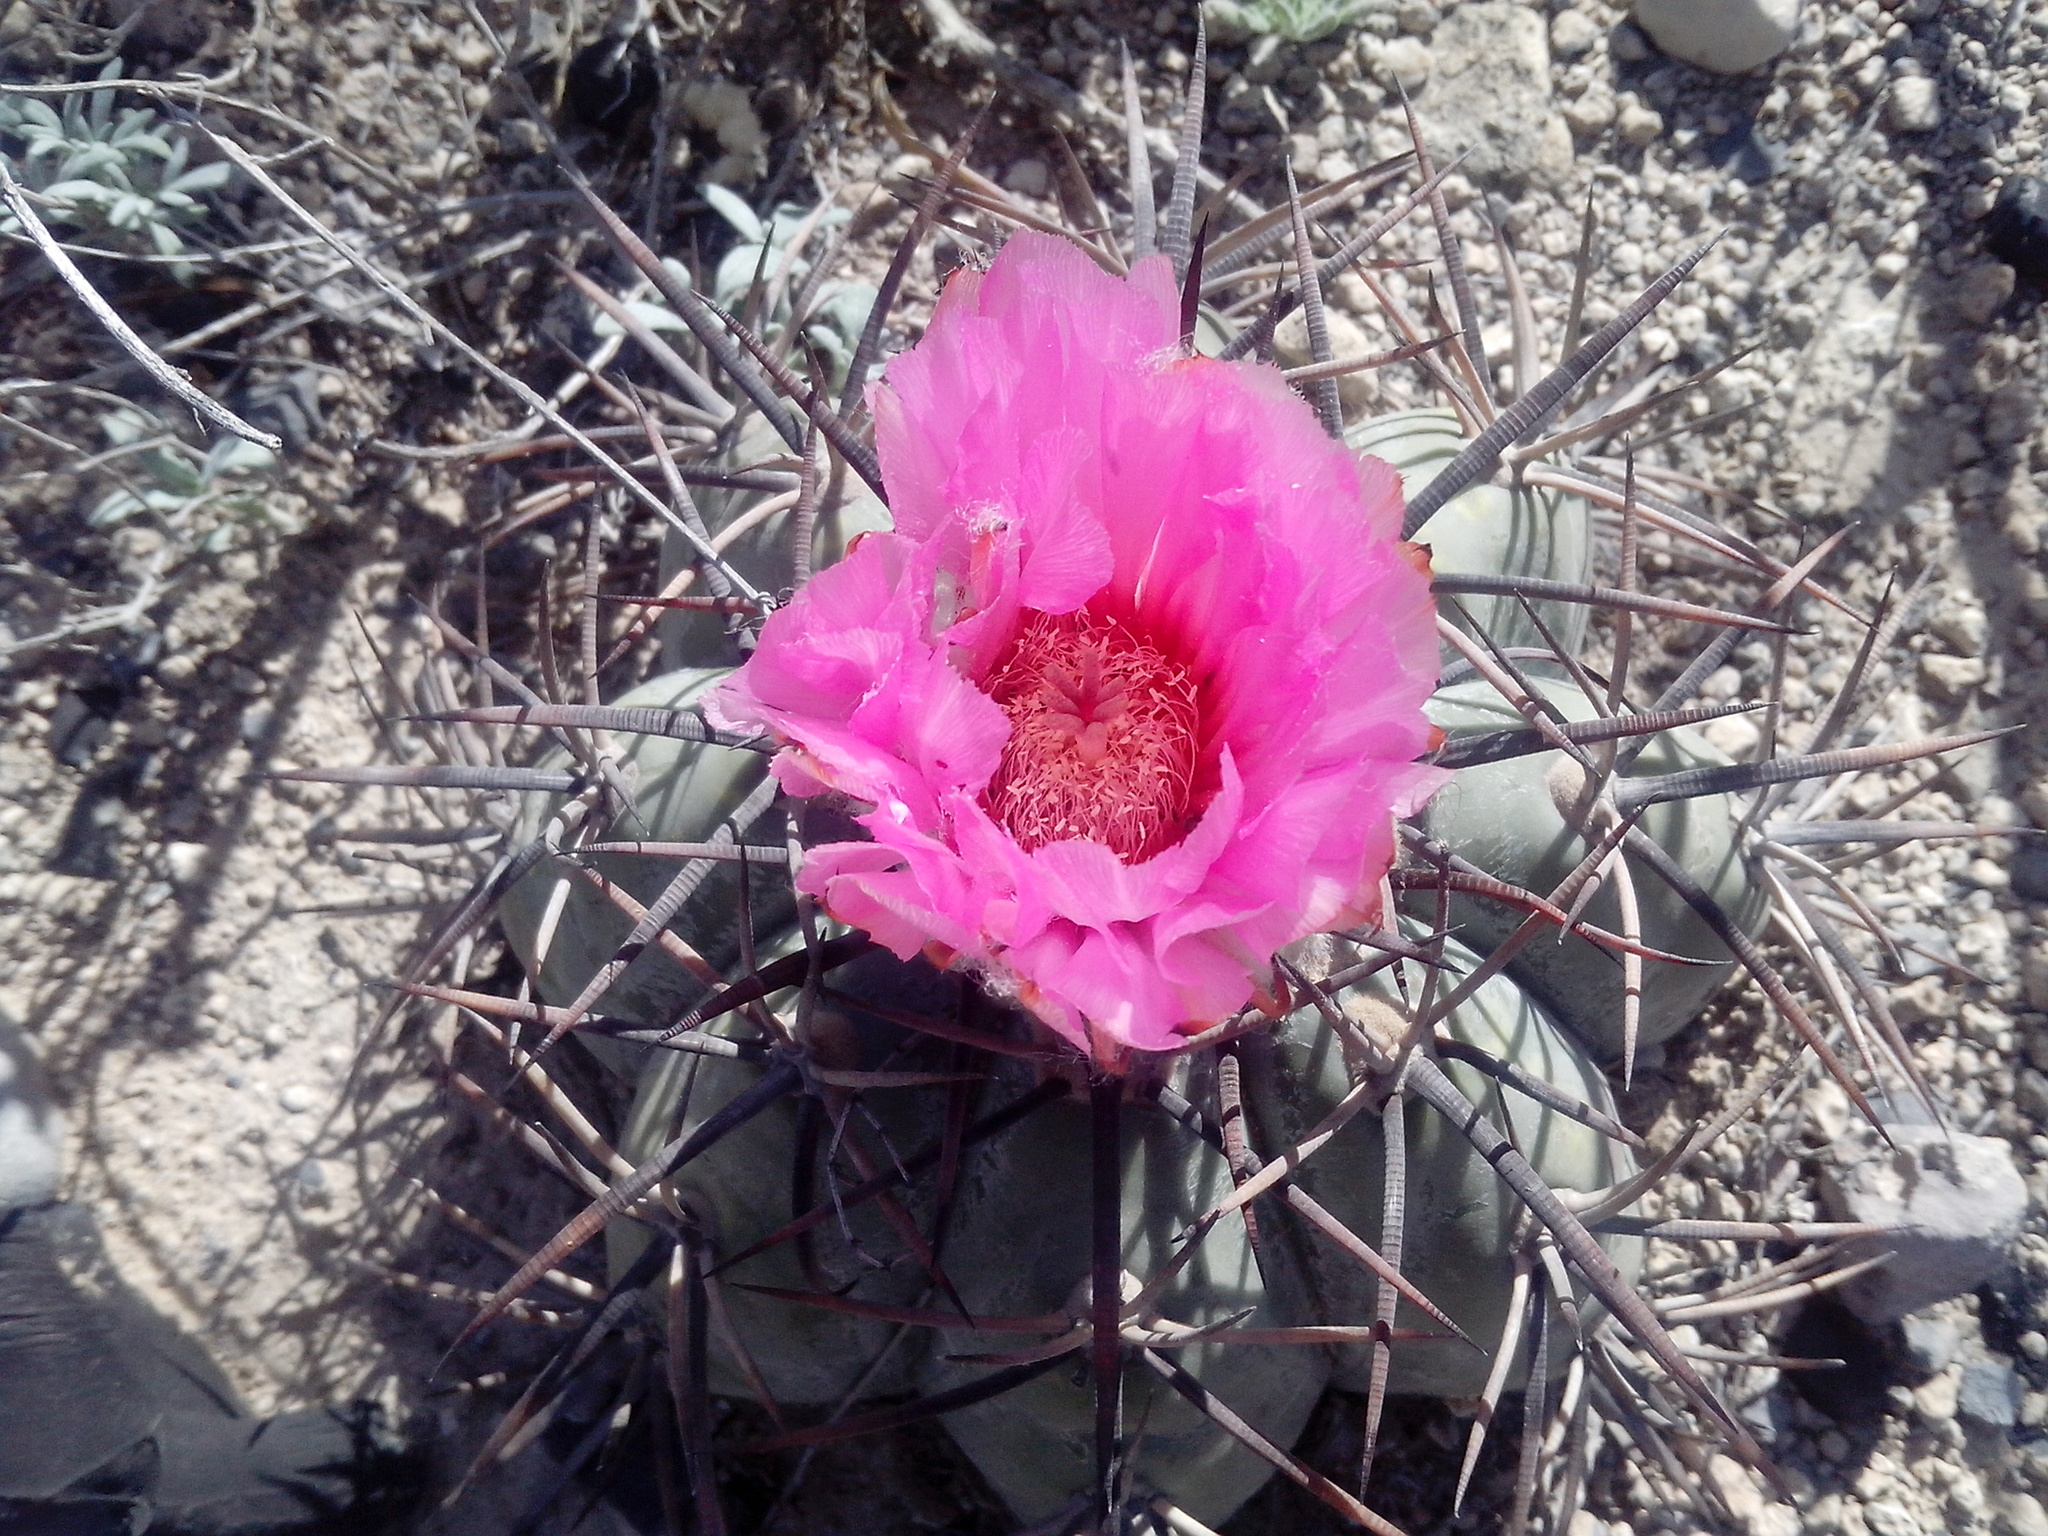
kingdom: Plantae
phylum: Tracheophyta
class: Magnoliopsida
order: Caryophyllales
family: Cactaceae
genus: Echinocactus
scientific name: Echinocactus horizonthalonius
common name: Devilshead
